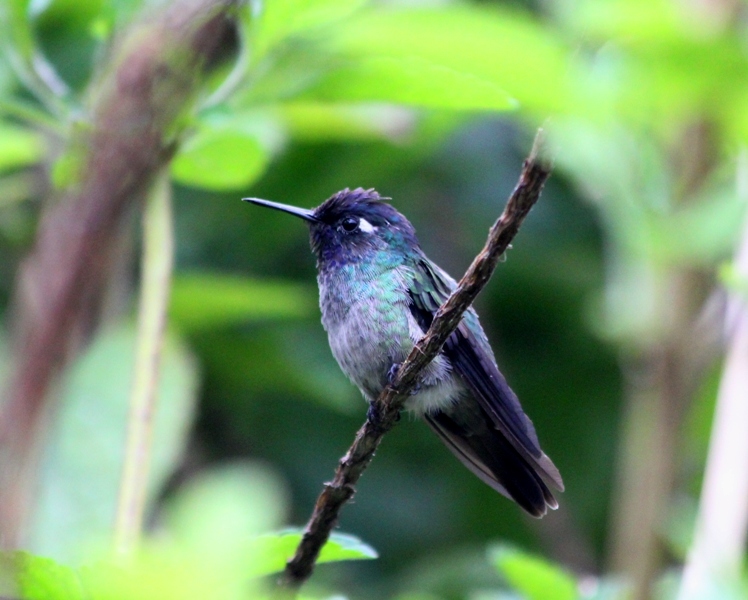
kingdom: Animalia
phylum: Chordata
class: Aves
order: Apodiformes
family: Trochilidae
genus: Klais
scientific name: Klais guimeti
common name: Violet-headed hummingbird
